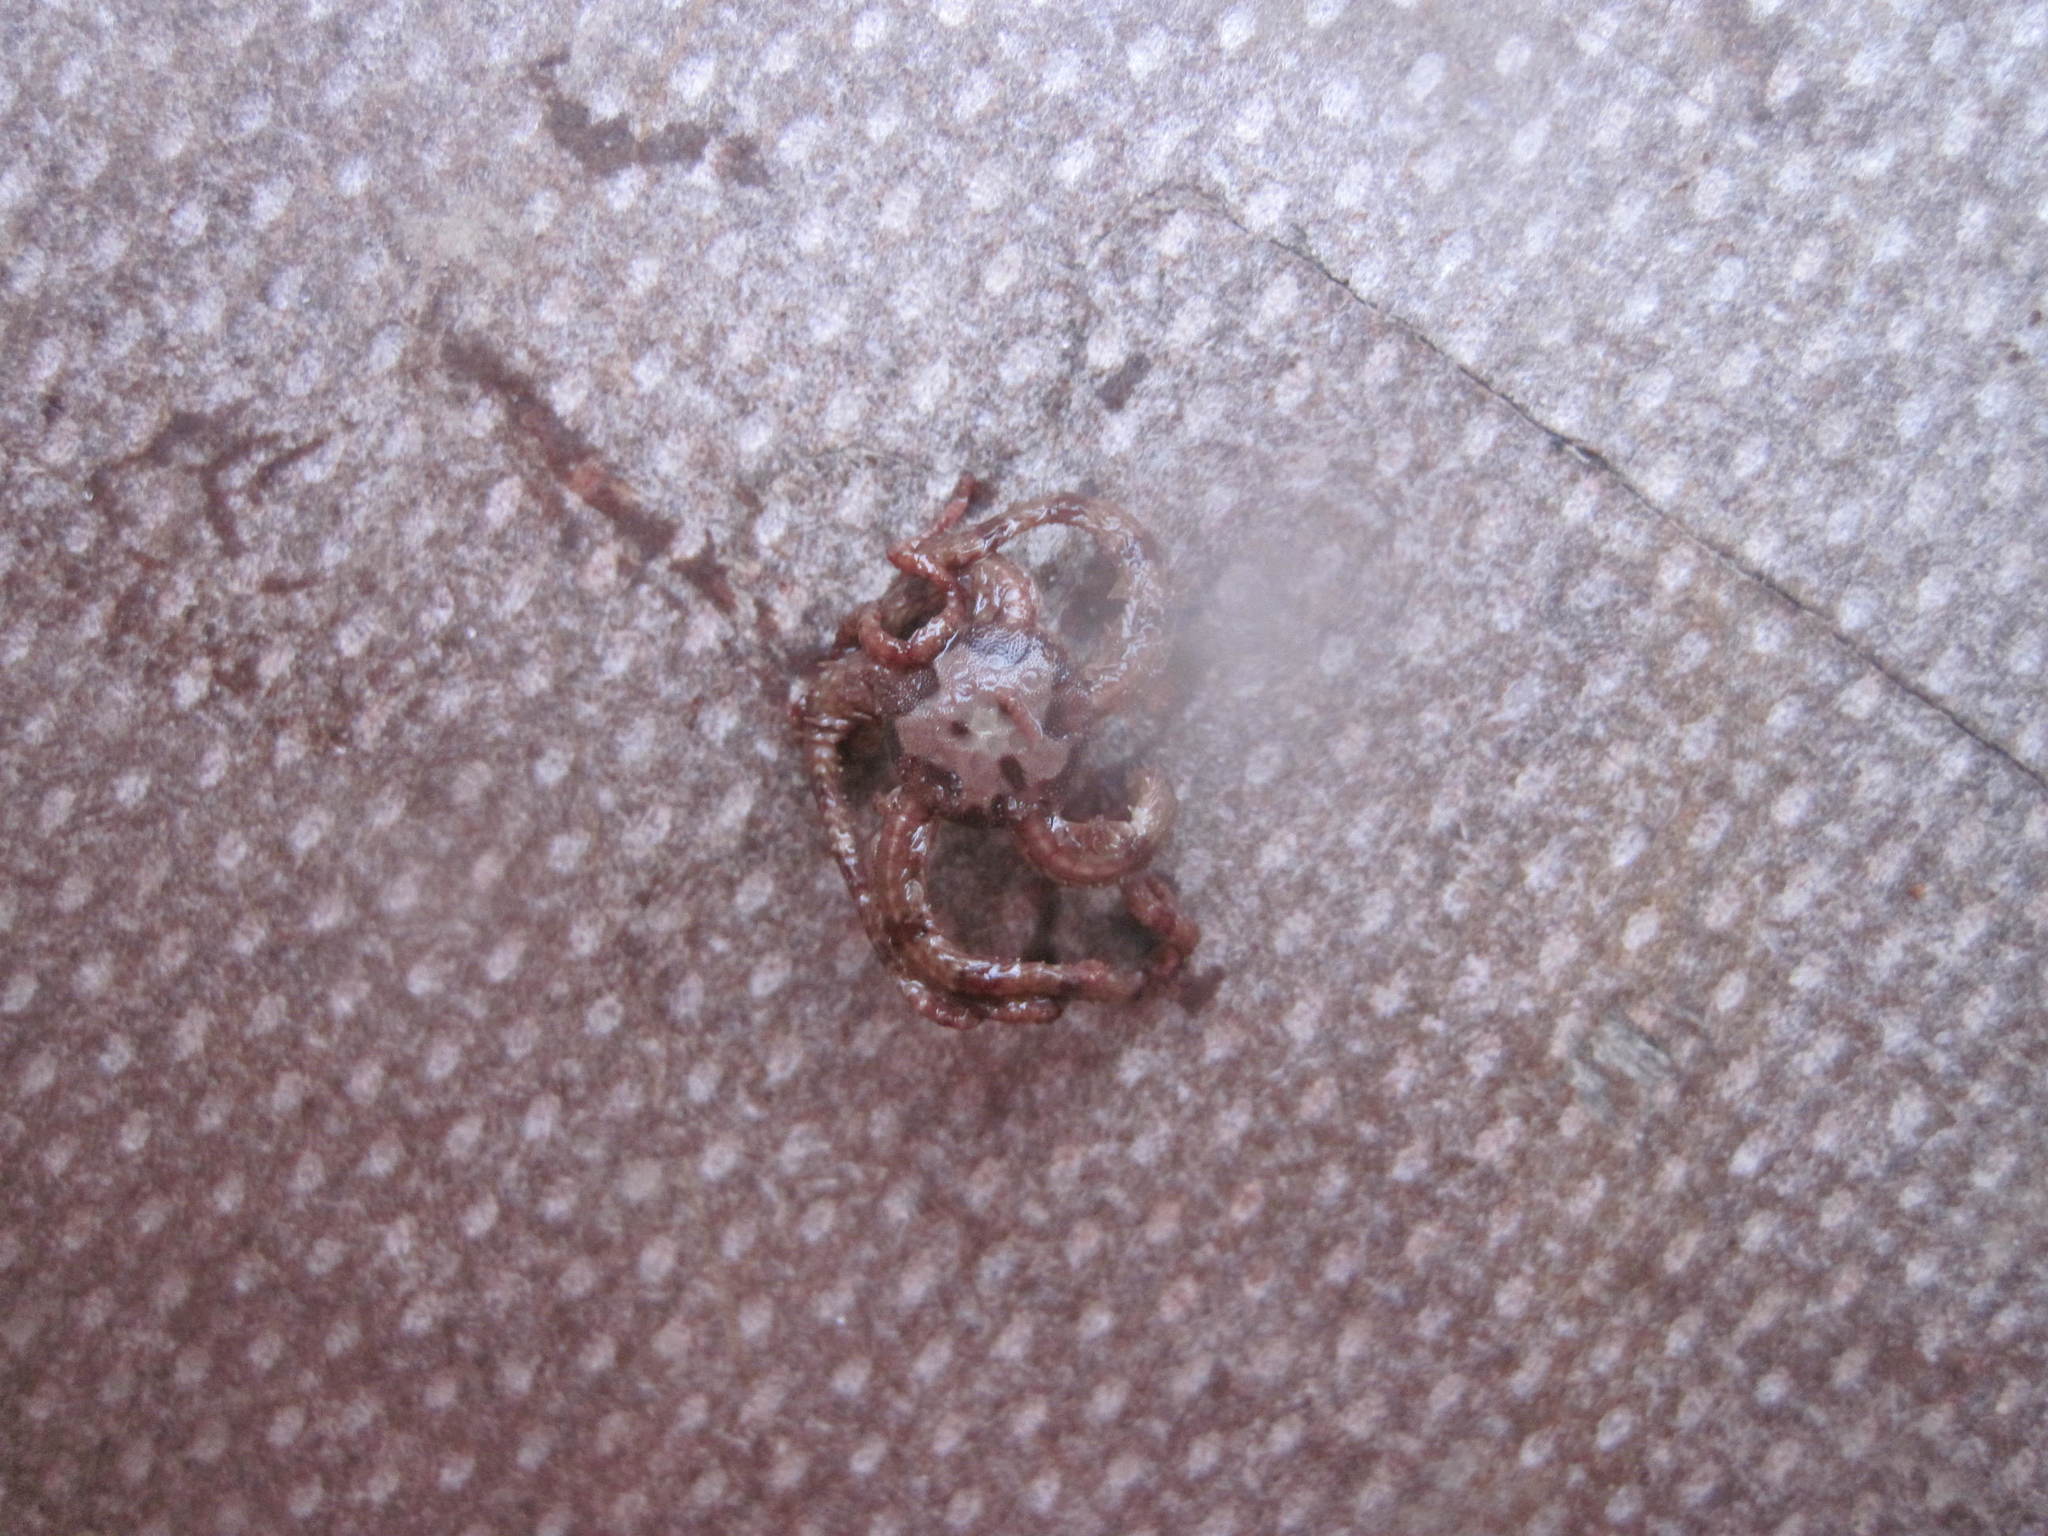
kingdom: Animalia
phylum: Echinodermata
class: Ophiuroidea
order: Amphilepidida
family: Ophiopholidae
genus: Ophiopholis
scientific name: Ophiopholis aculeata
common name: Crevice brittlestar
